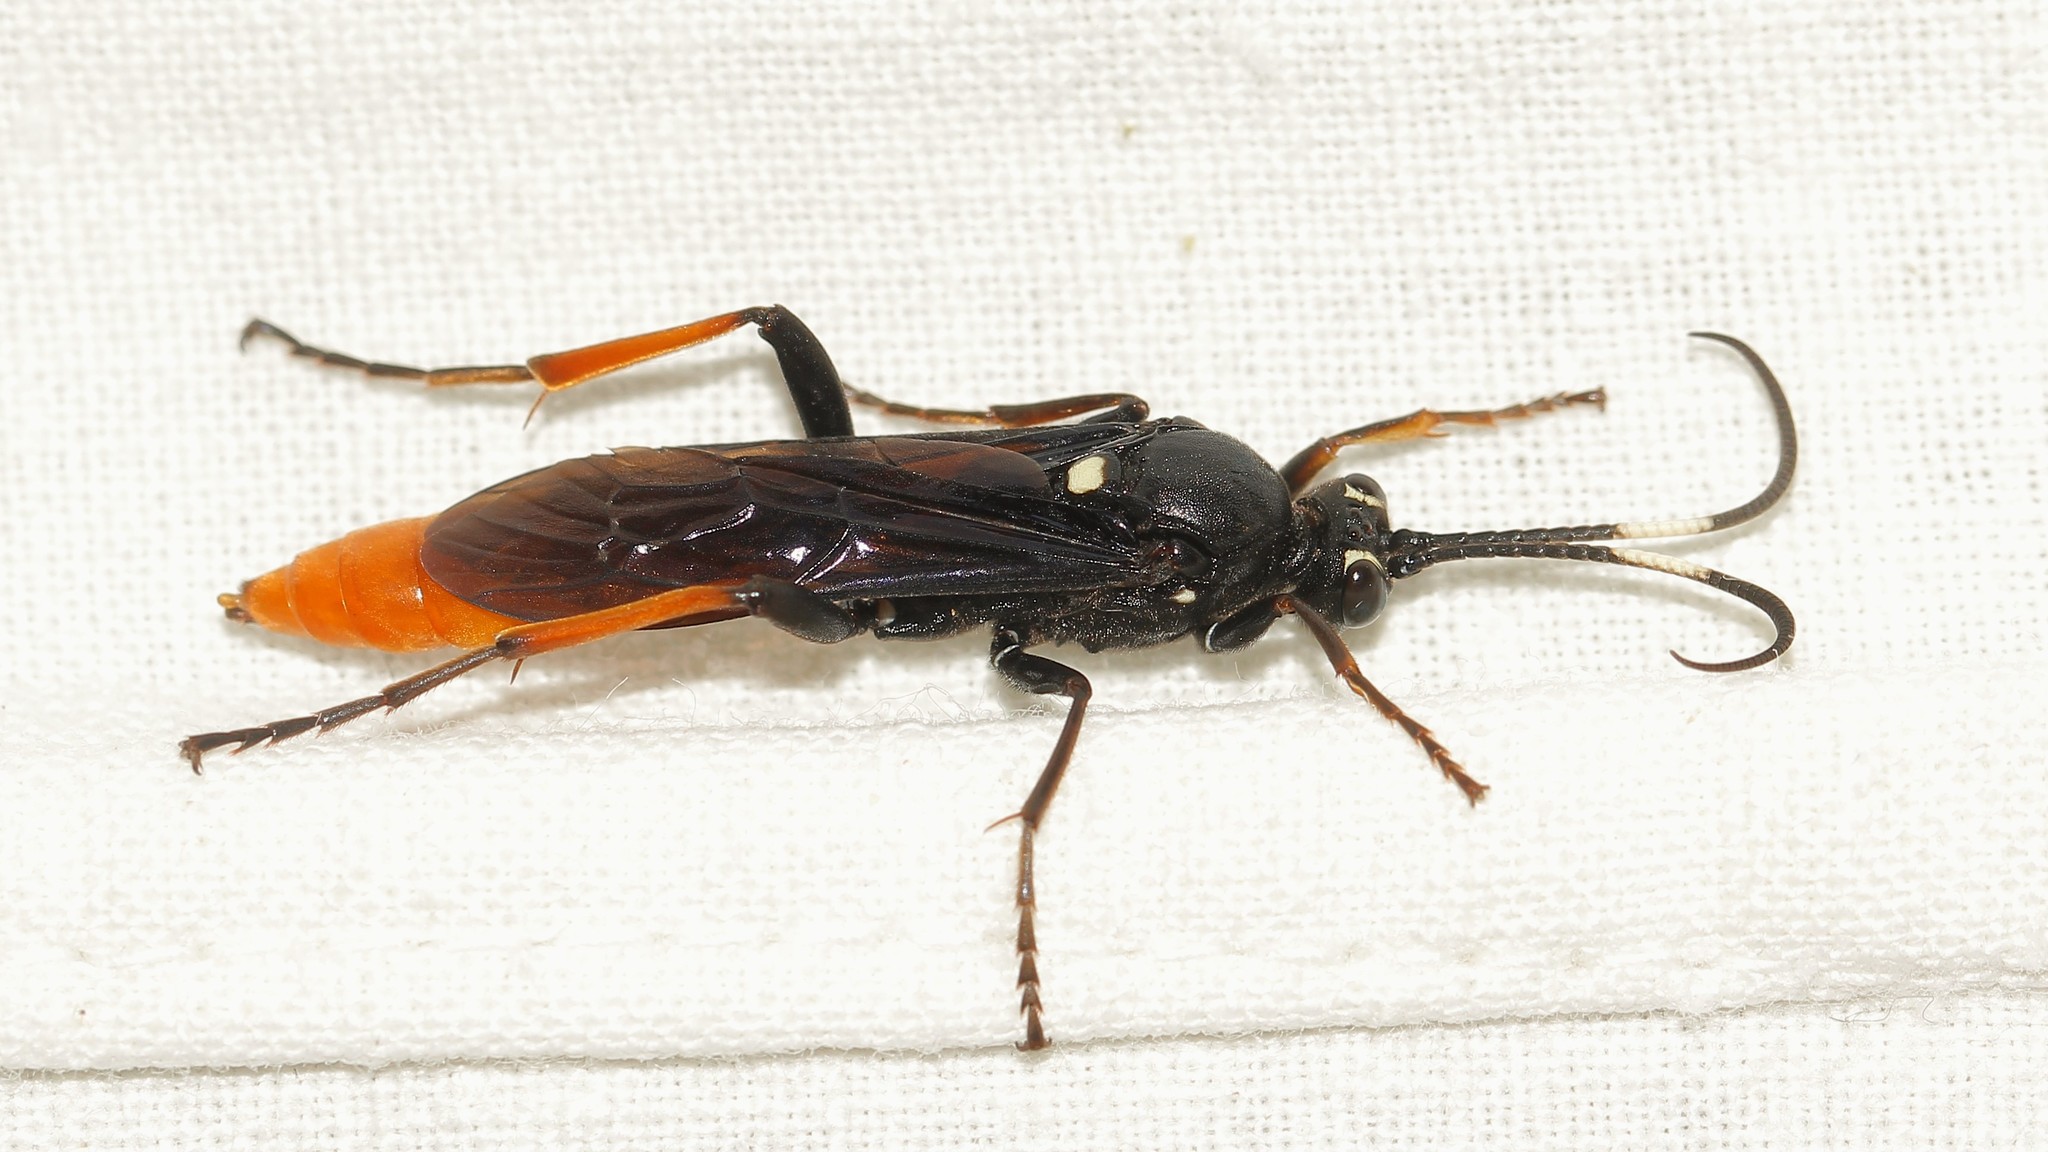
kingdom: Animalia
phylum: Arthropoda
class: Insecta
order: Hymenoptera
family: Ichneumonidae
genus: Amblyjoppa
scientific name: Amblyjoppa fuscipennis
